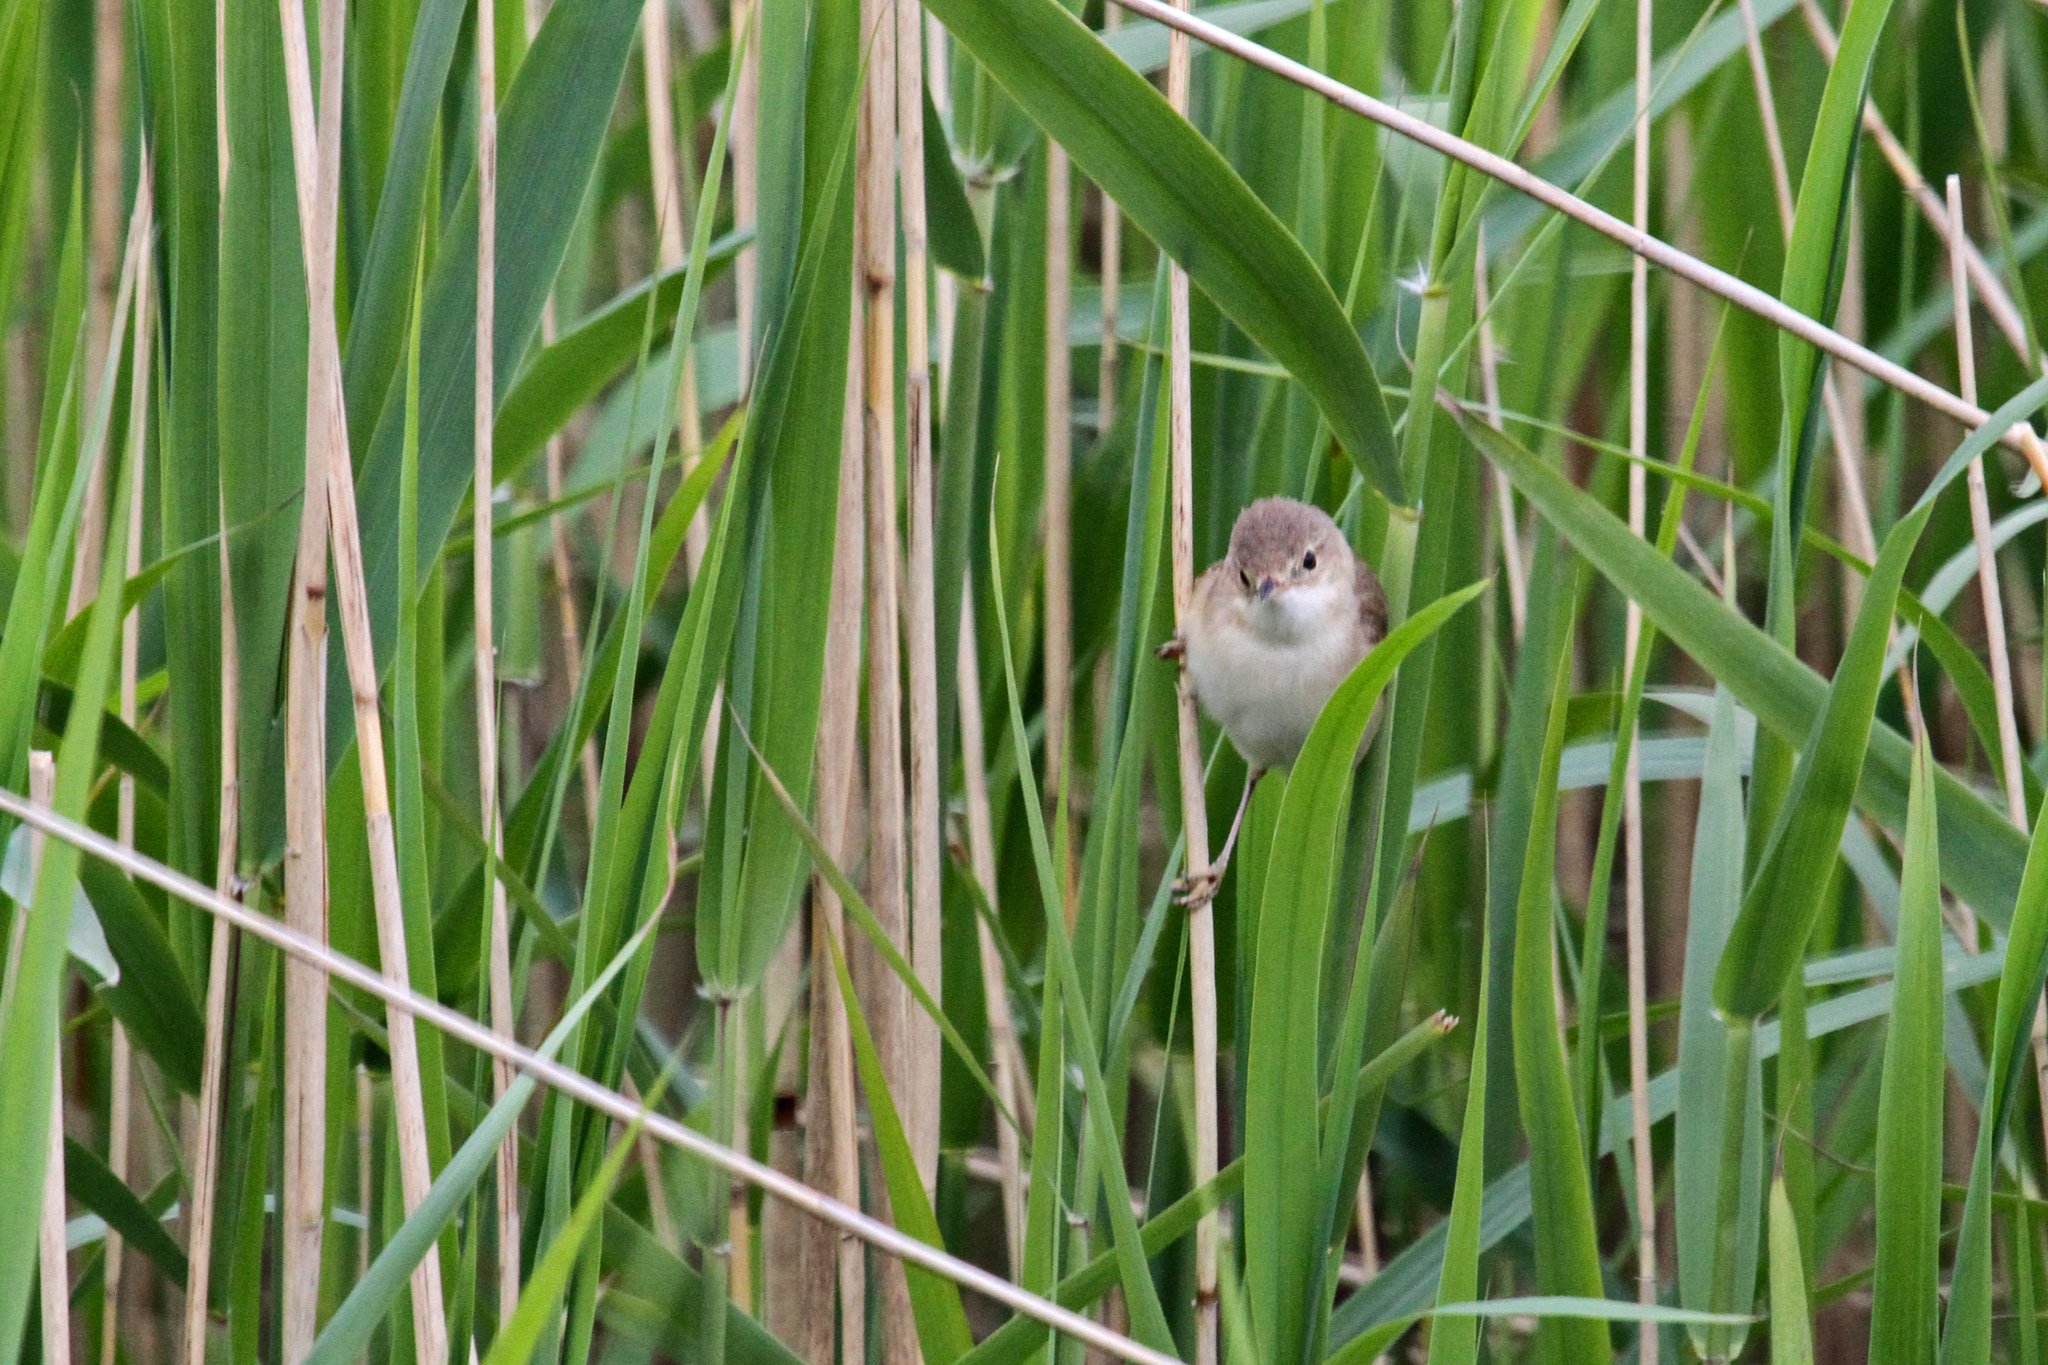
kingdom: Animalia
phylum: Chordata
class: Aves
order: Passeriformes
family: Acrocephalidae
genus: Acrocephalus
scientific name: Acrocephalus scirpaceus
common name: Eurasian reed warbler
